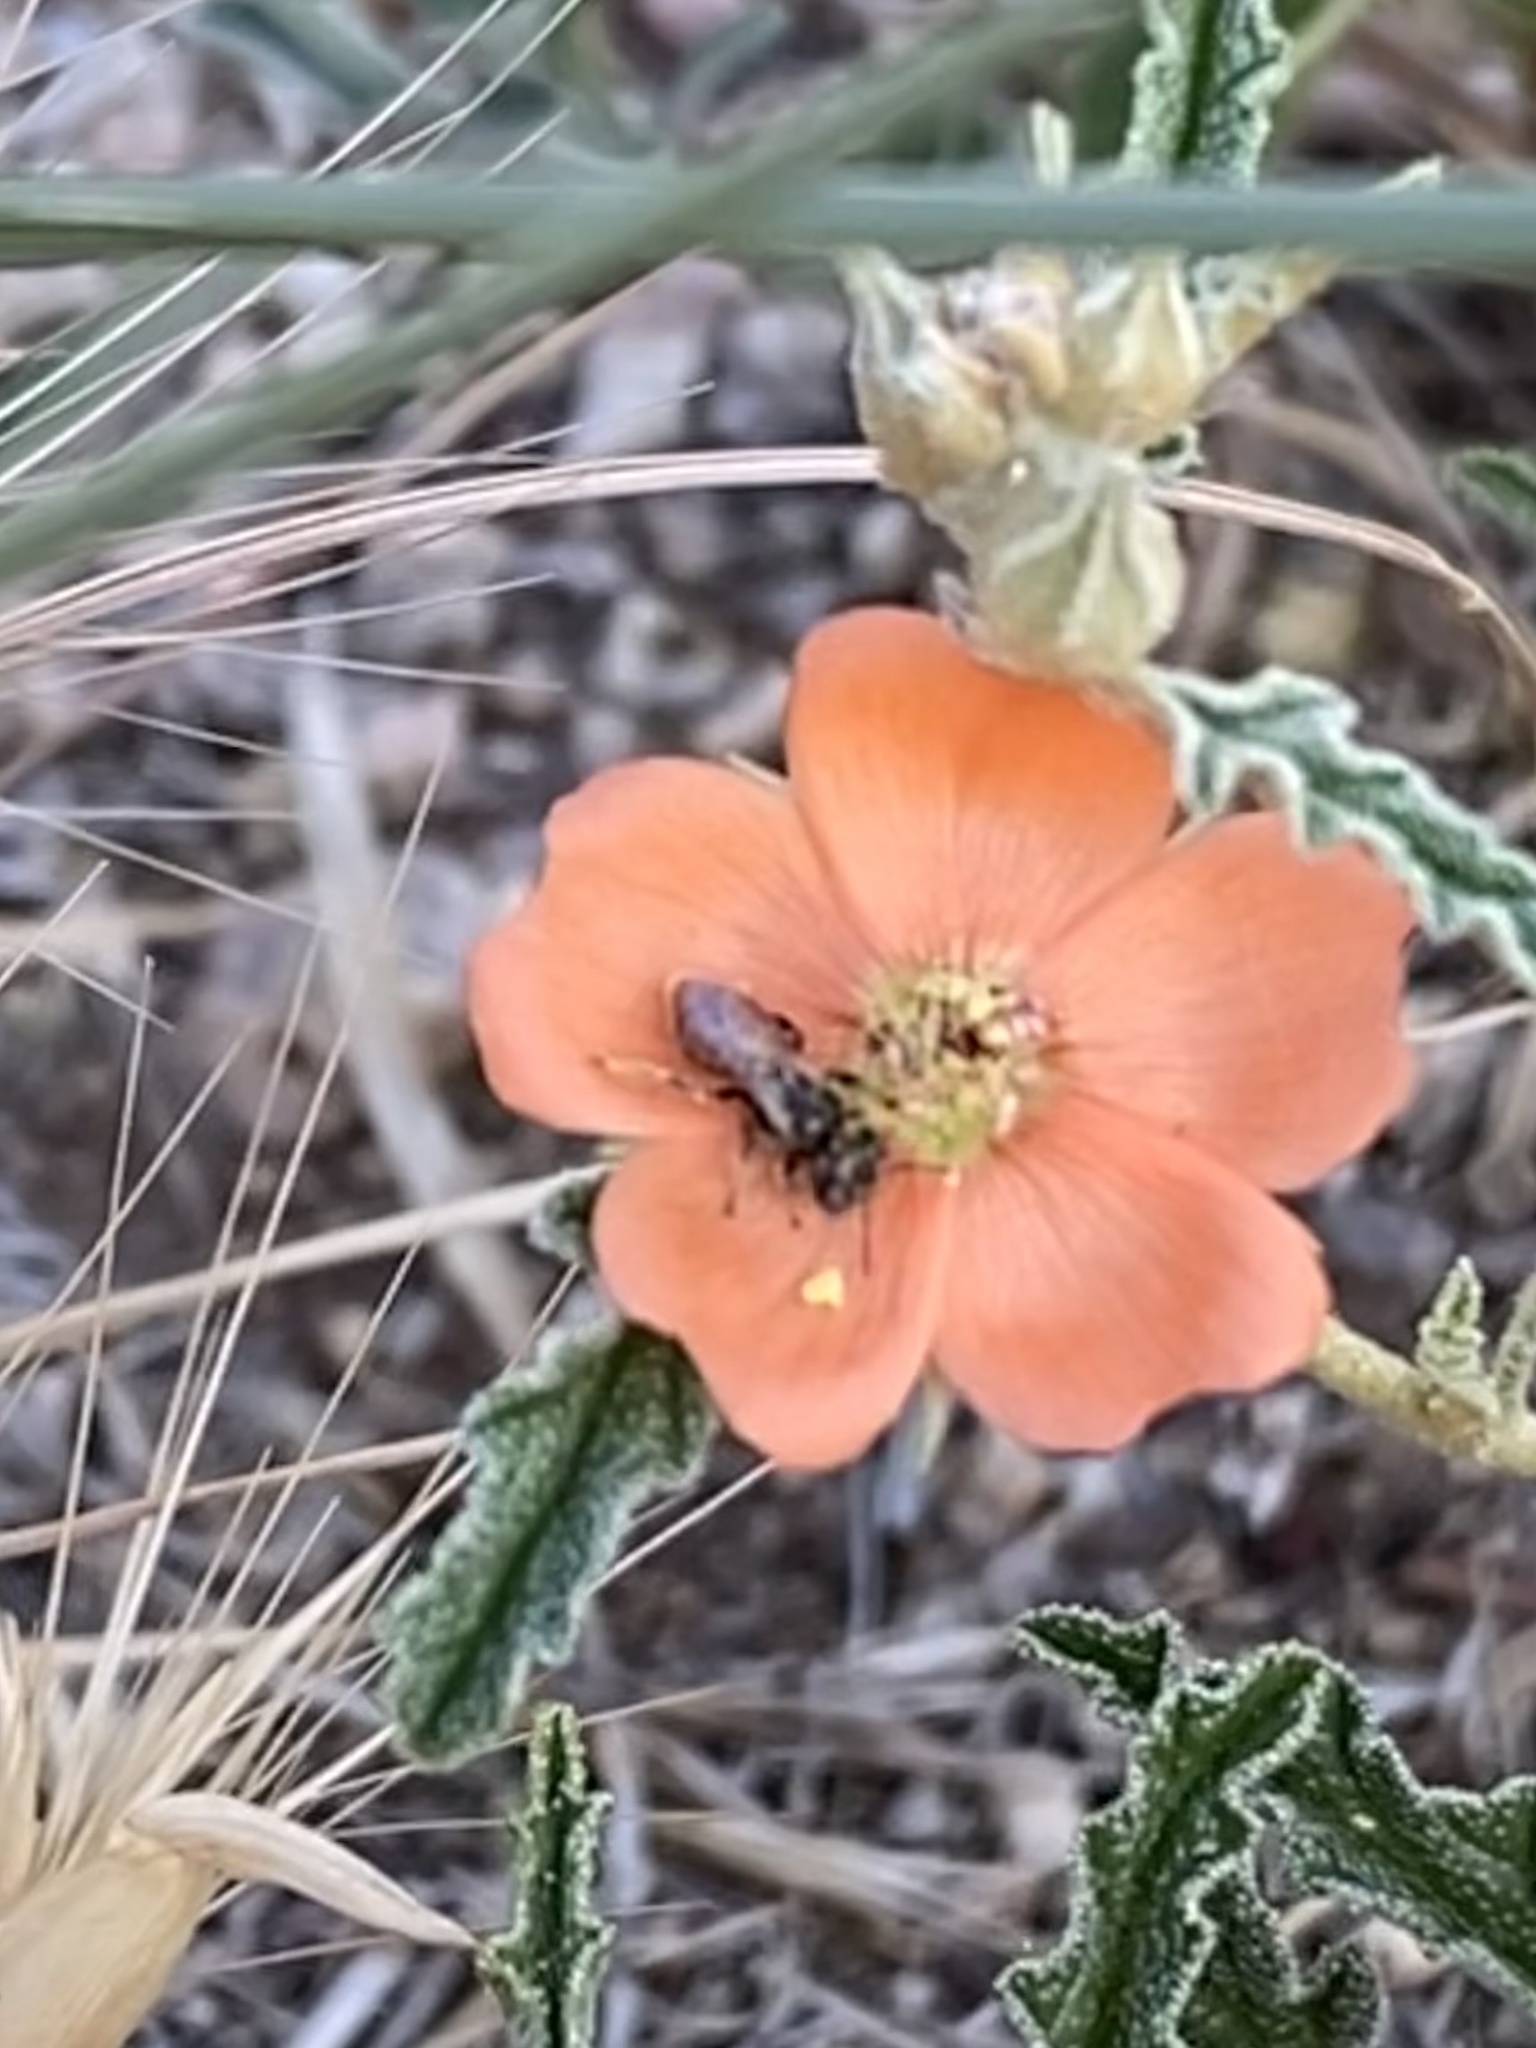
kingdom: Animalia
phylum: Arthropoda
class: Insecta
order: Hymenoptera
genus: Macroteropsis
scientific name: Macroteropsis
